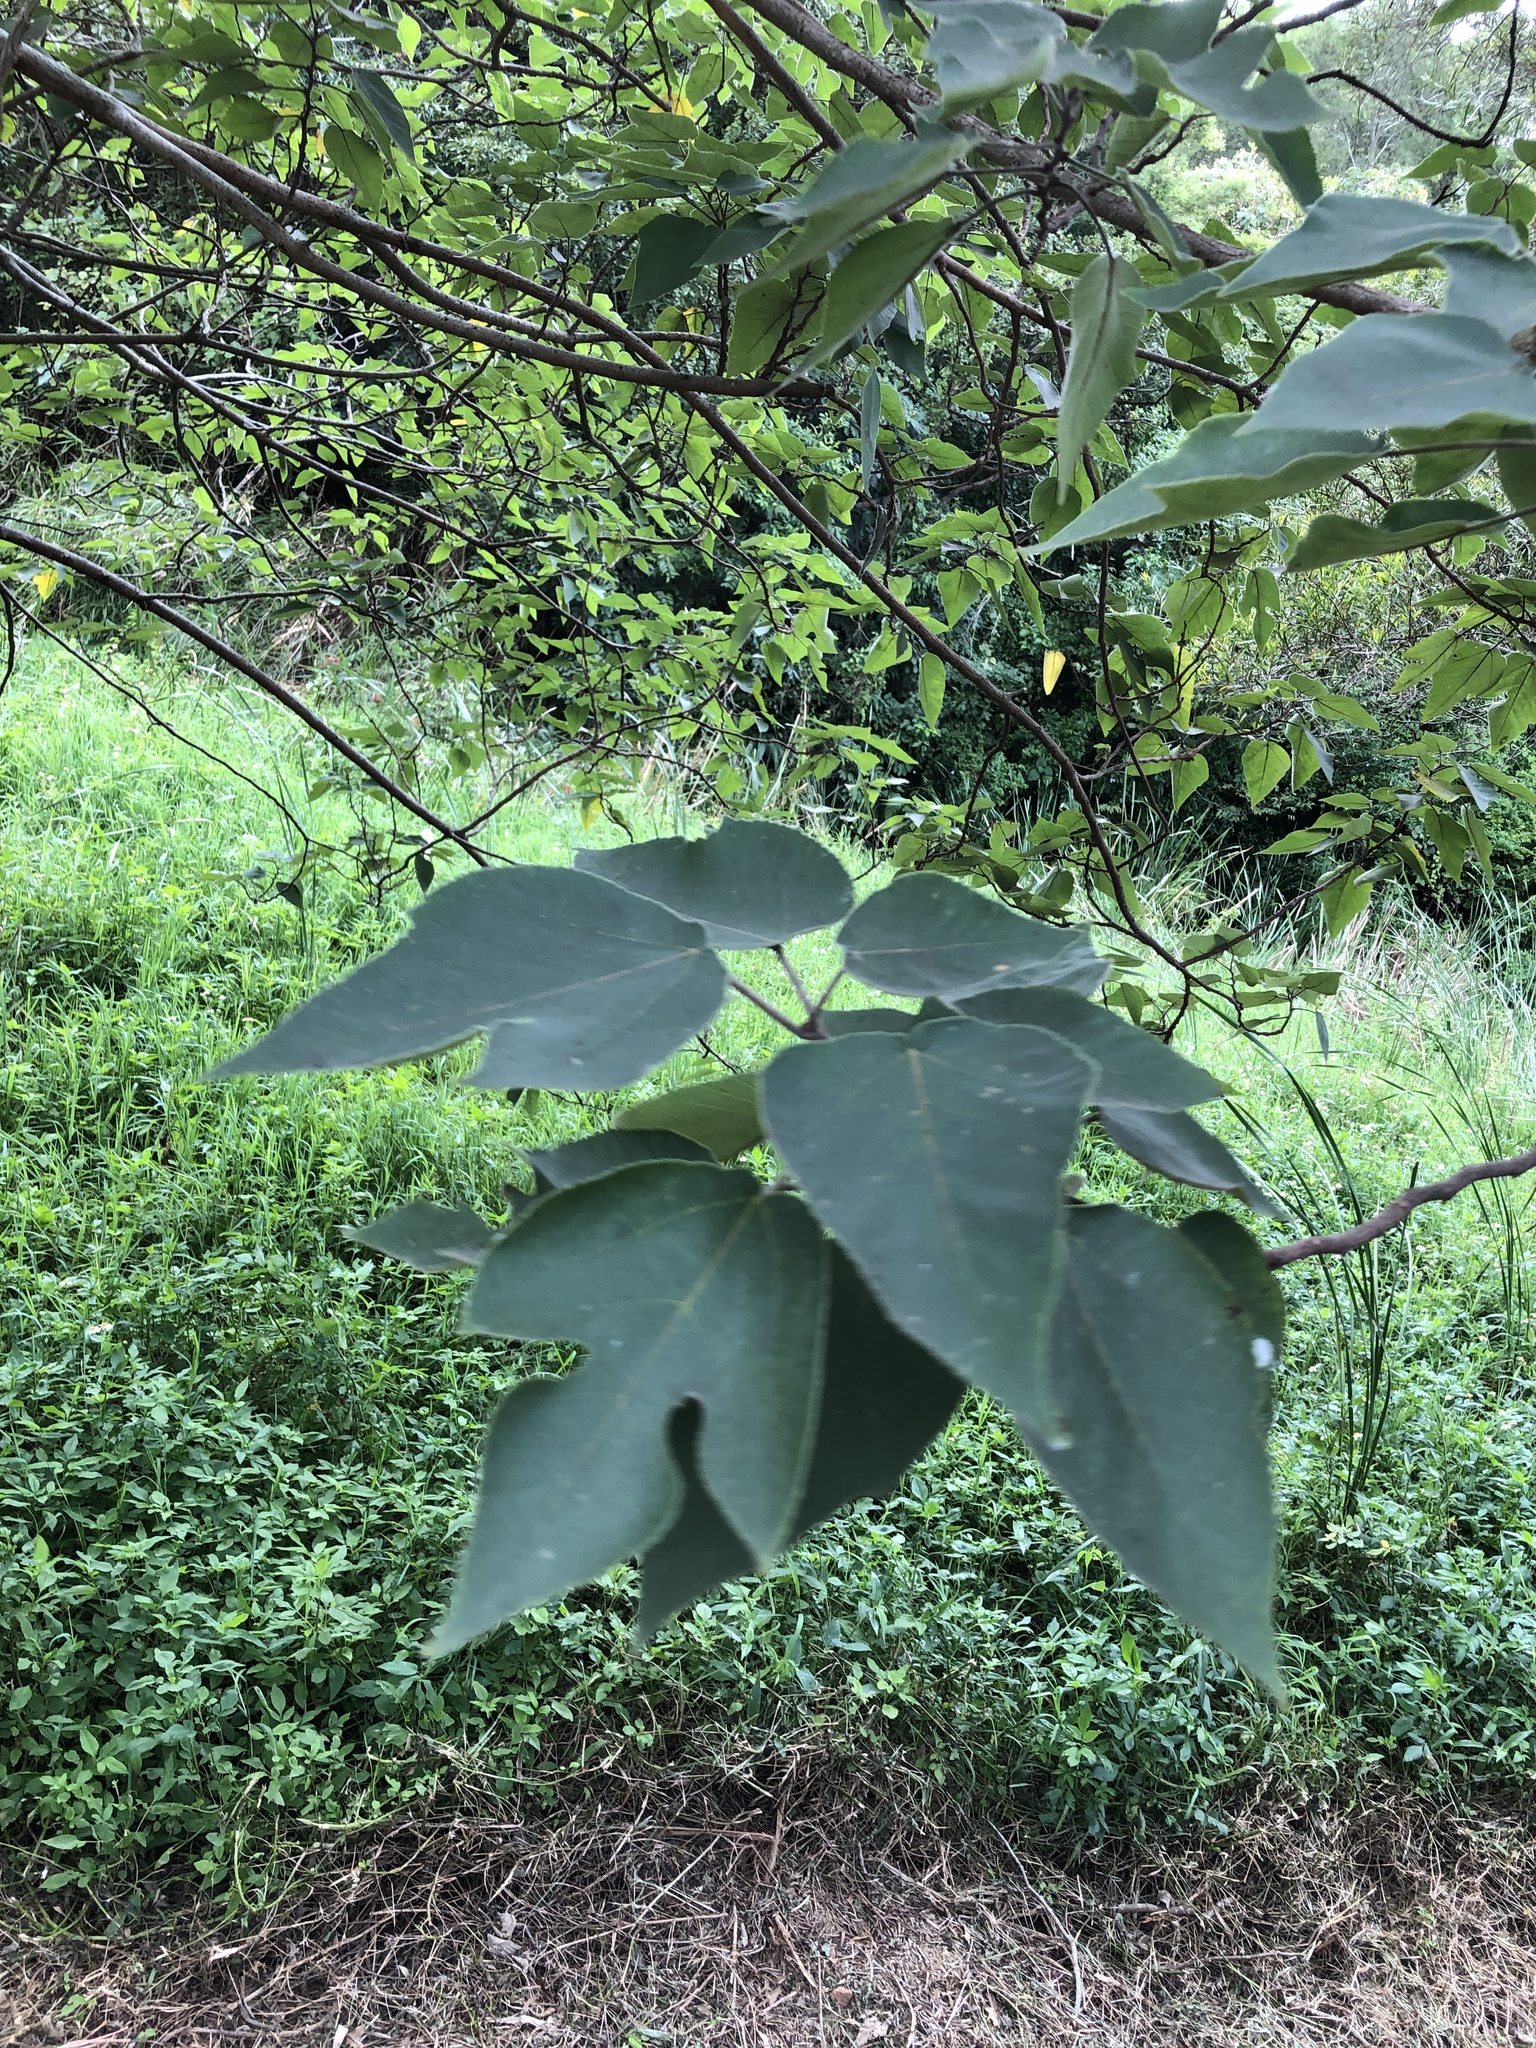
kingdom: Plantae
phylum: Tracheophyta
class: Magnoliopsida
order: Rosales
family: Moraceae
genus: Broussonetia
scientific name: Broussonetia papyrifera
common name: Paper mulberry
